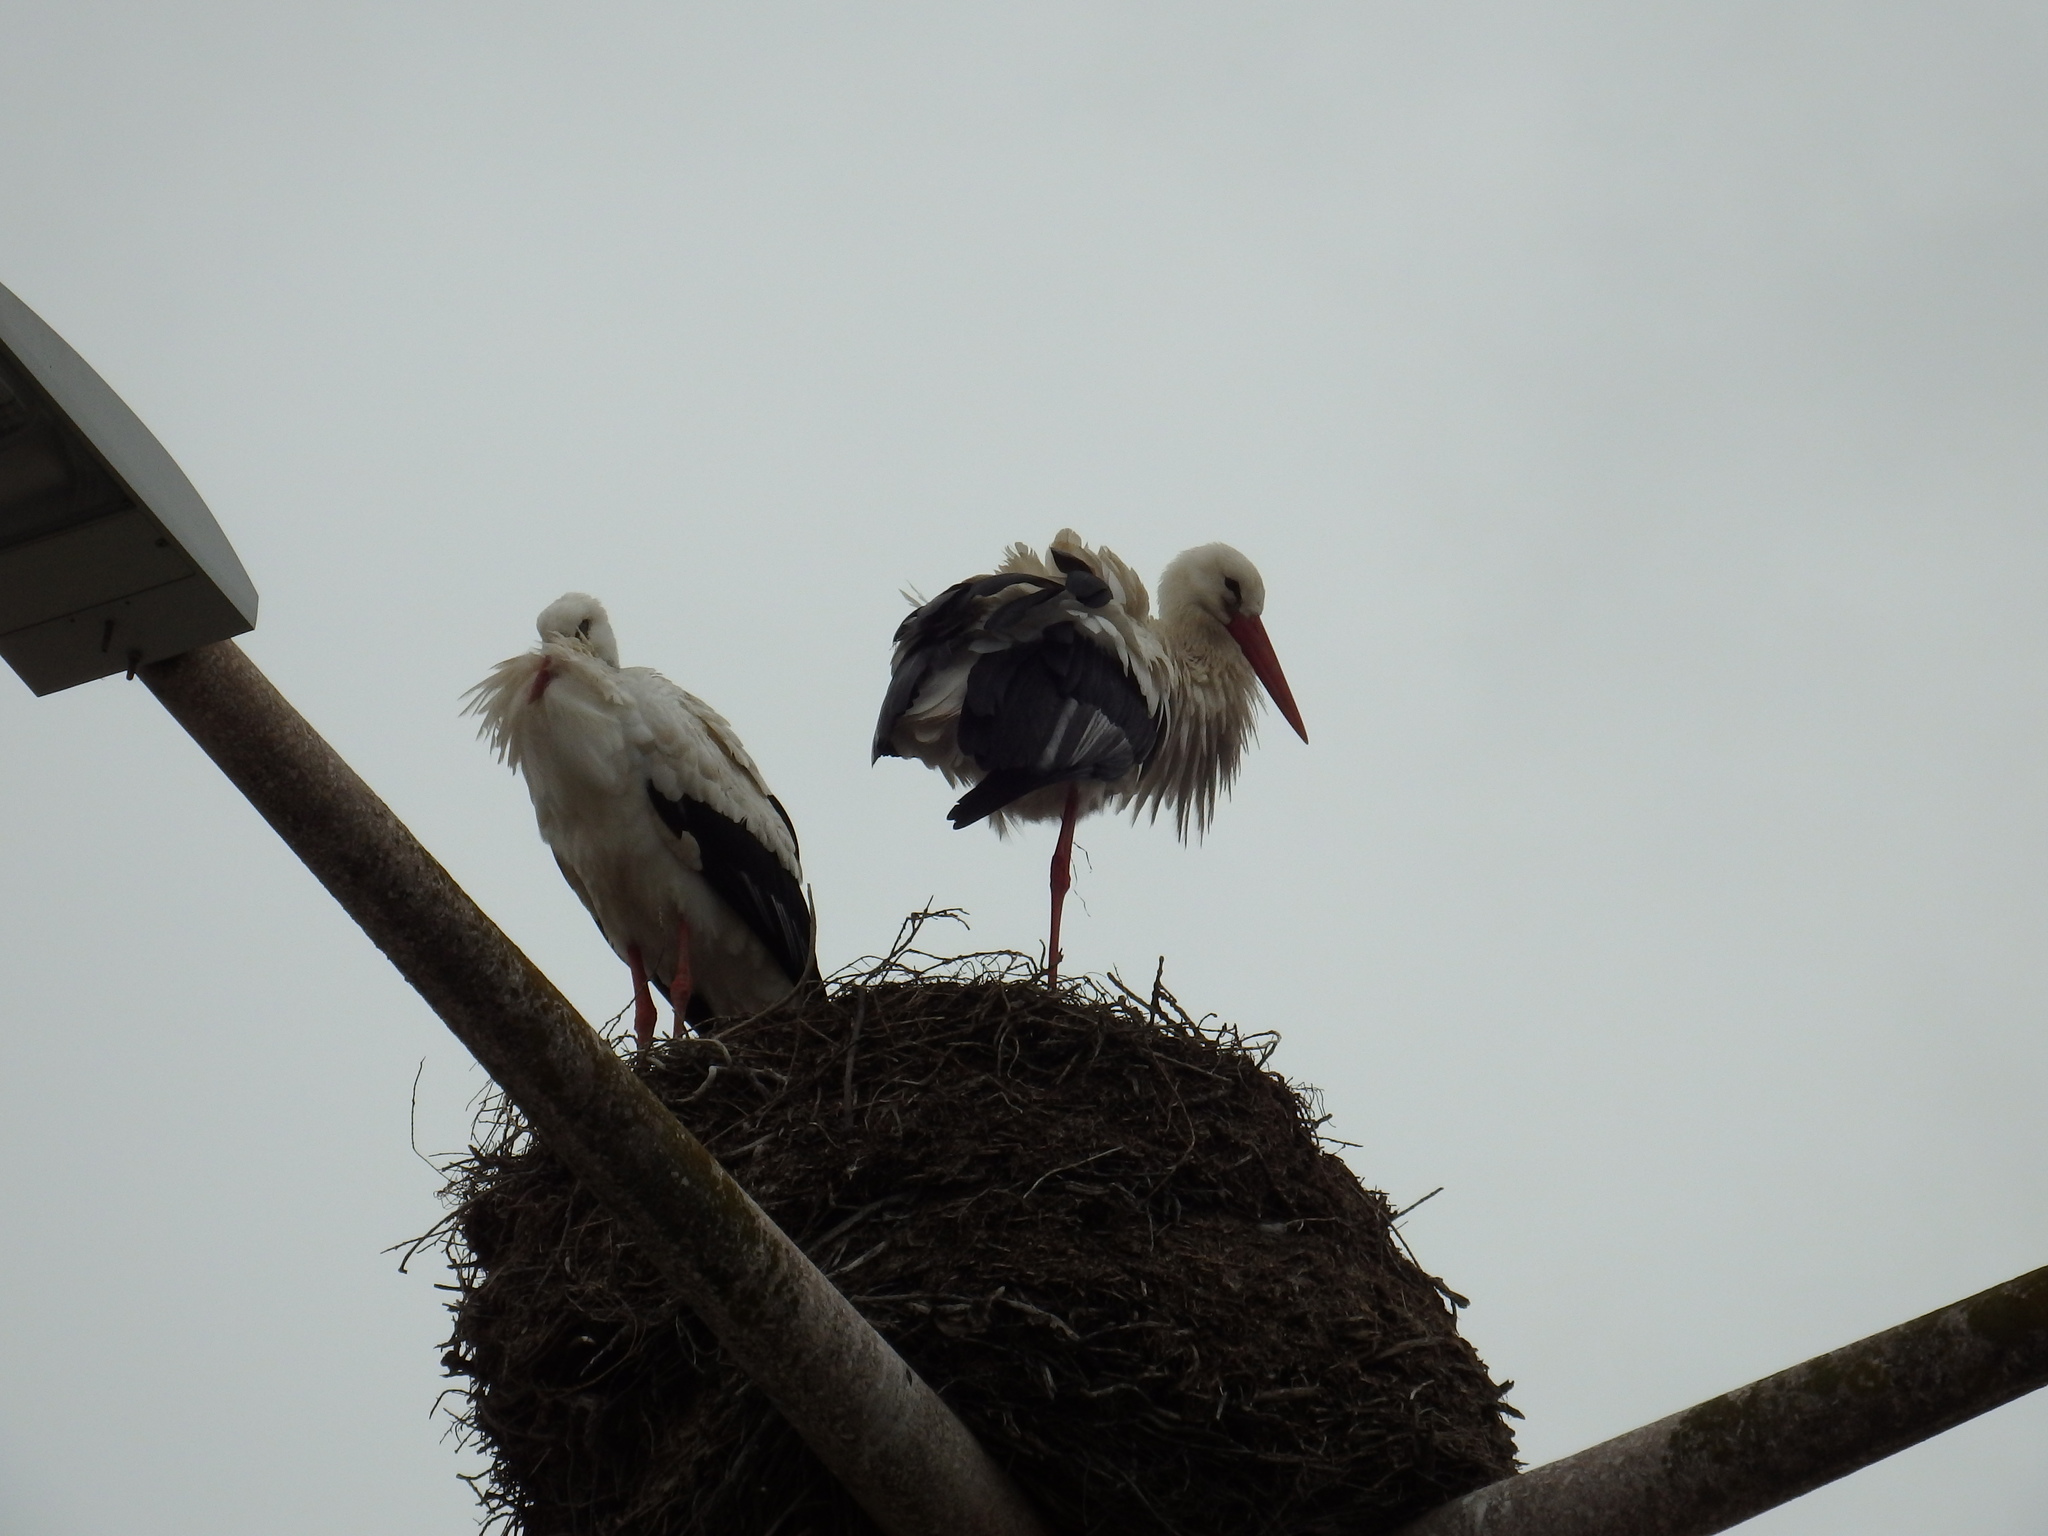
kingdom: Animalia
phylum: Chordata
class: Aves
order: Ciconiiformes
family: Ciconiidae
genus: Ciconia
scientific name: Ciconia ciconia
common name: White stork
